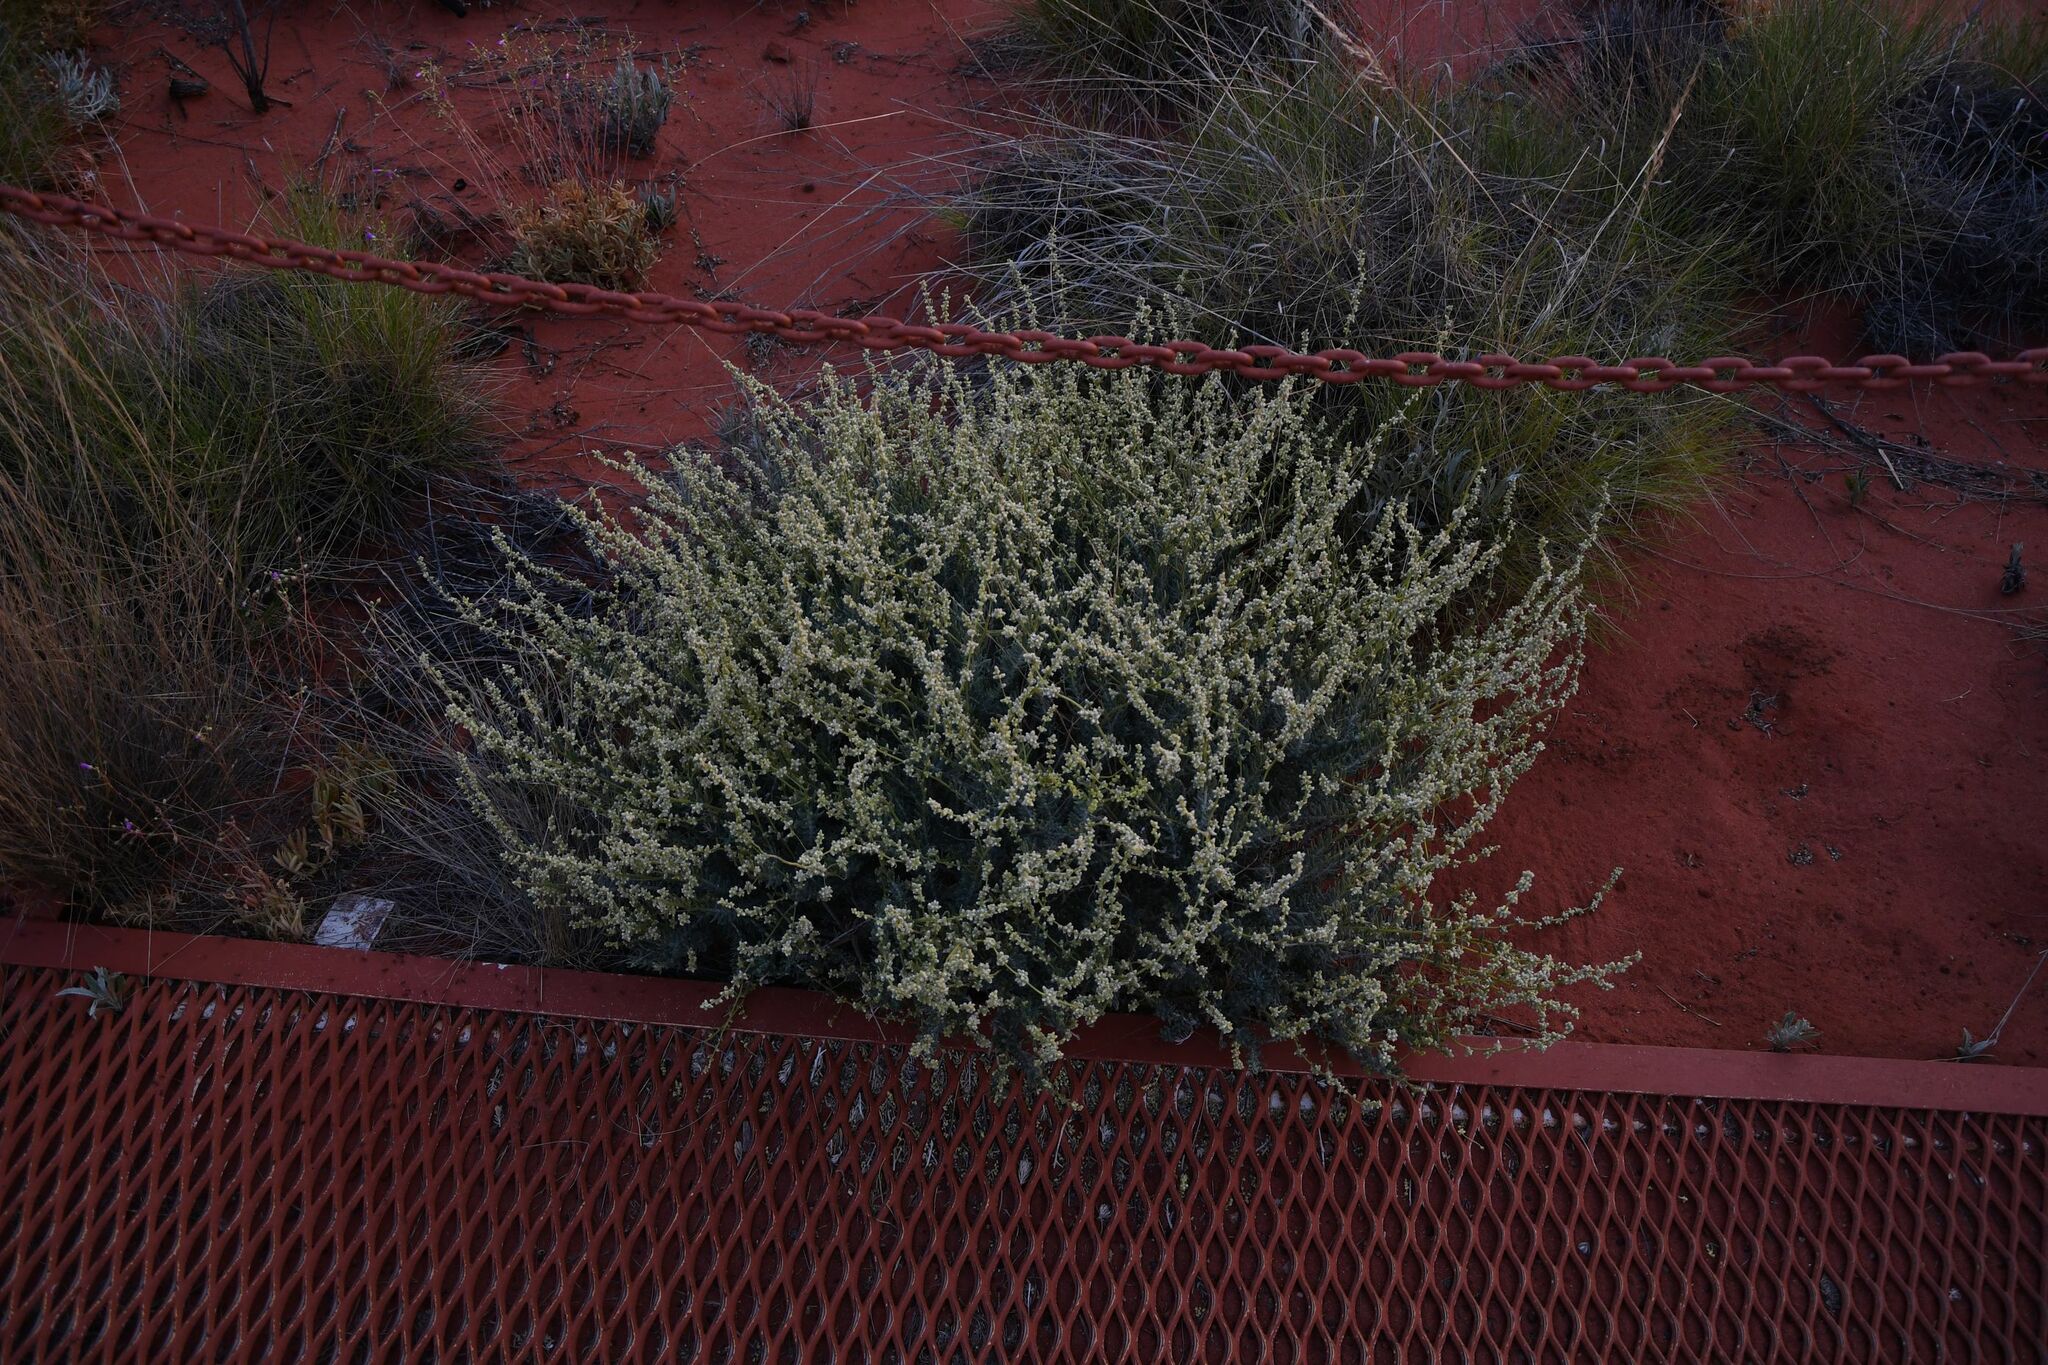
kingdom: Plantae
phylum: Tracheophyta
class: Magnoliopsida
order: Caryophyllales
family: Amaranthaceae
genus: Salsola
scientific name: Salsola australis
